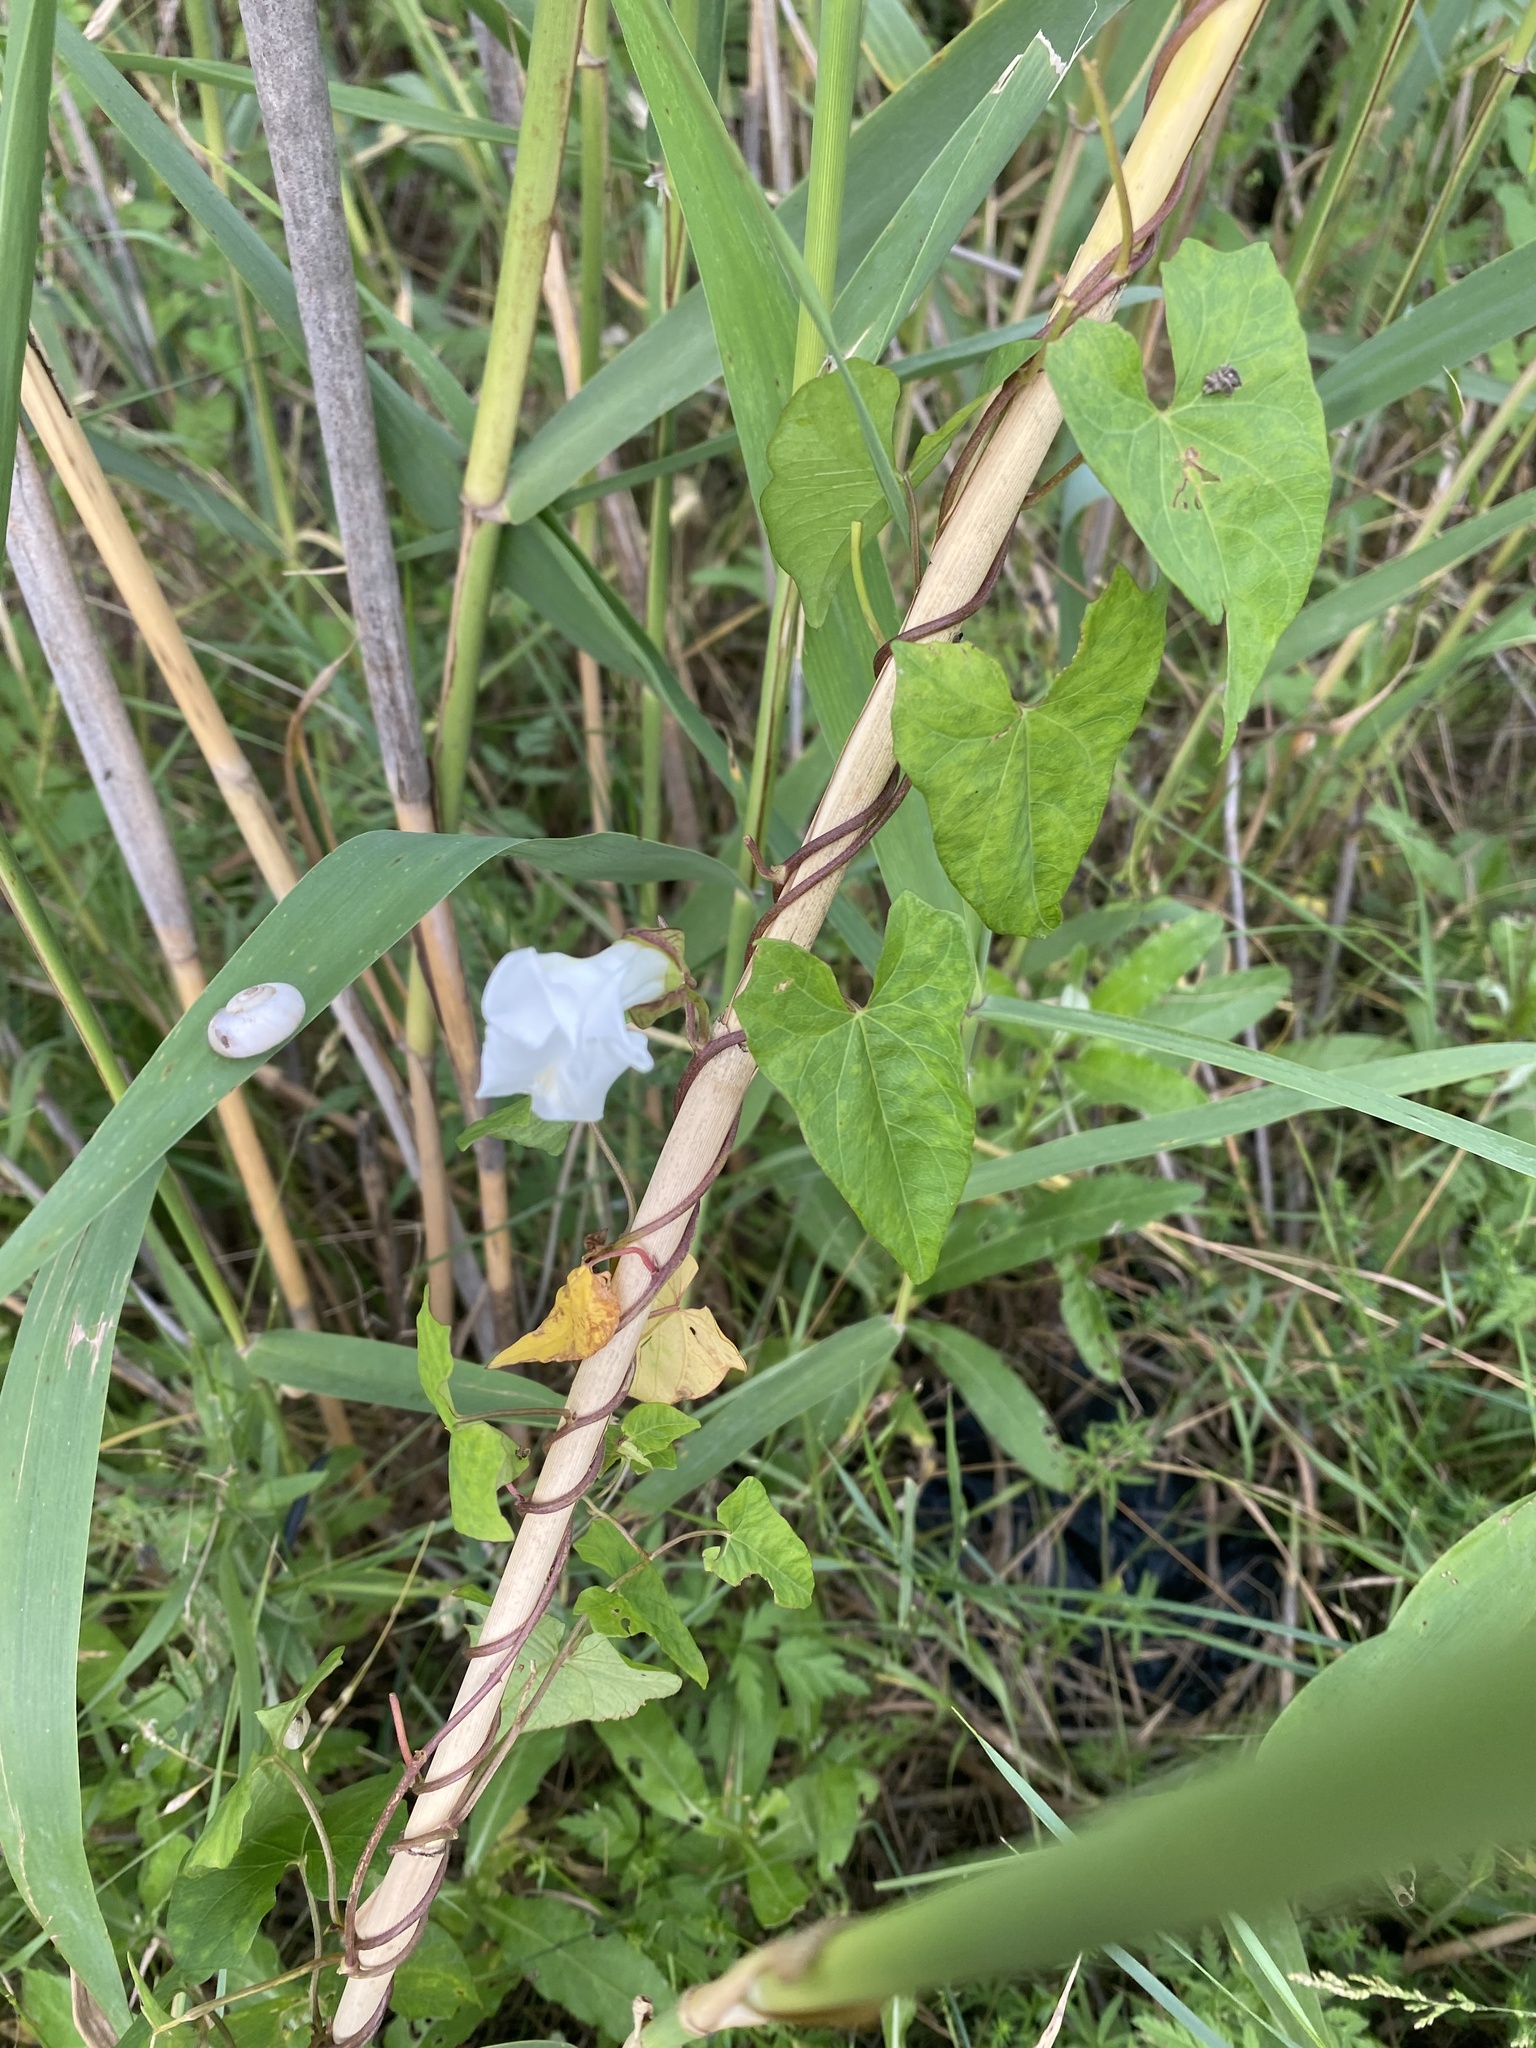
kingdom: Plantae
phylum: Tracheophyta
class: Magnoliopsida
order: Solanales
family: Convolvulaceae
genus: Calystegia
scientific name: Calystegia sepium
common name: Hedge bindweed
